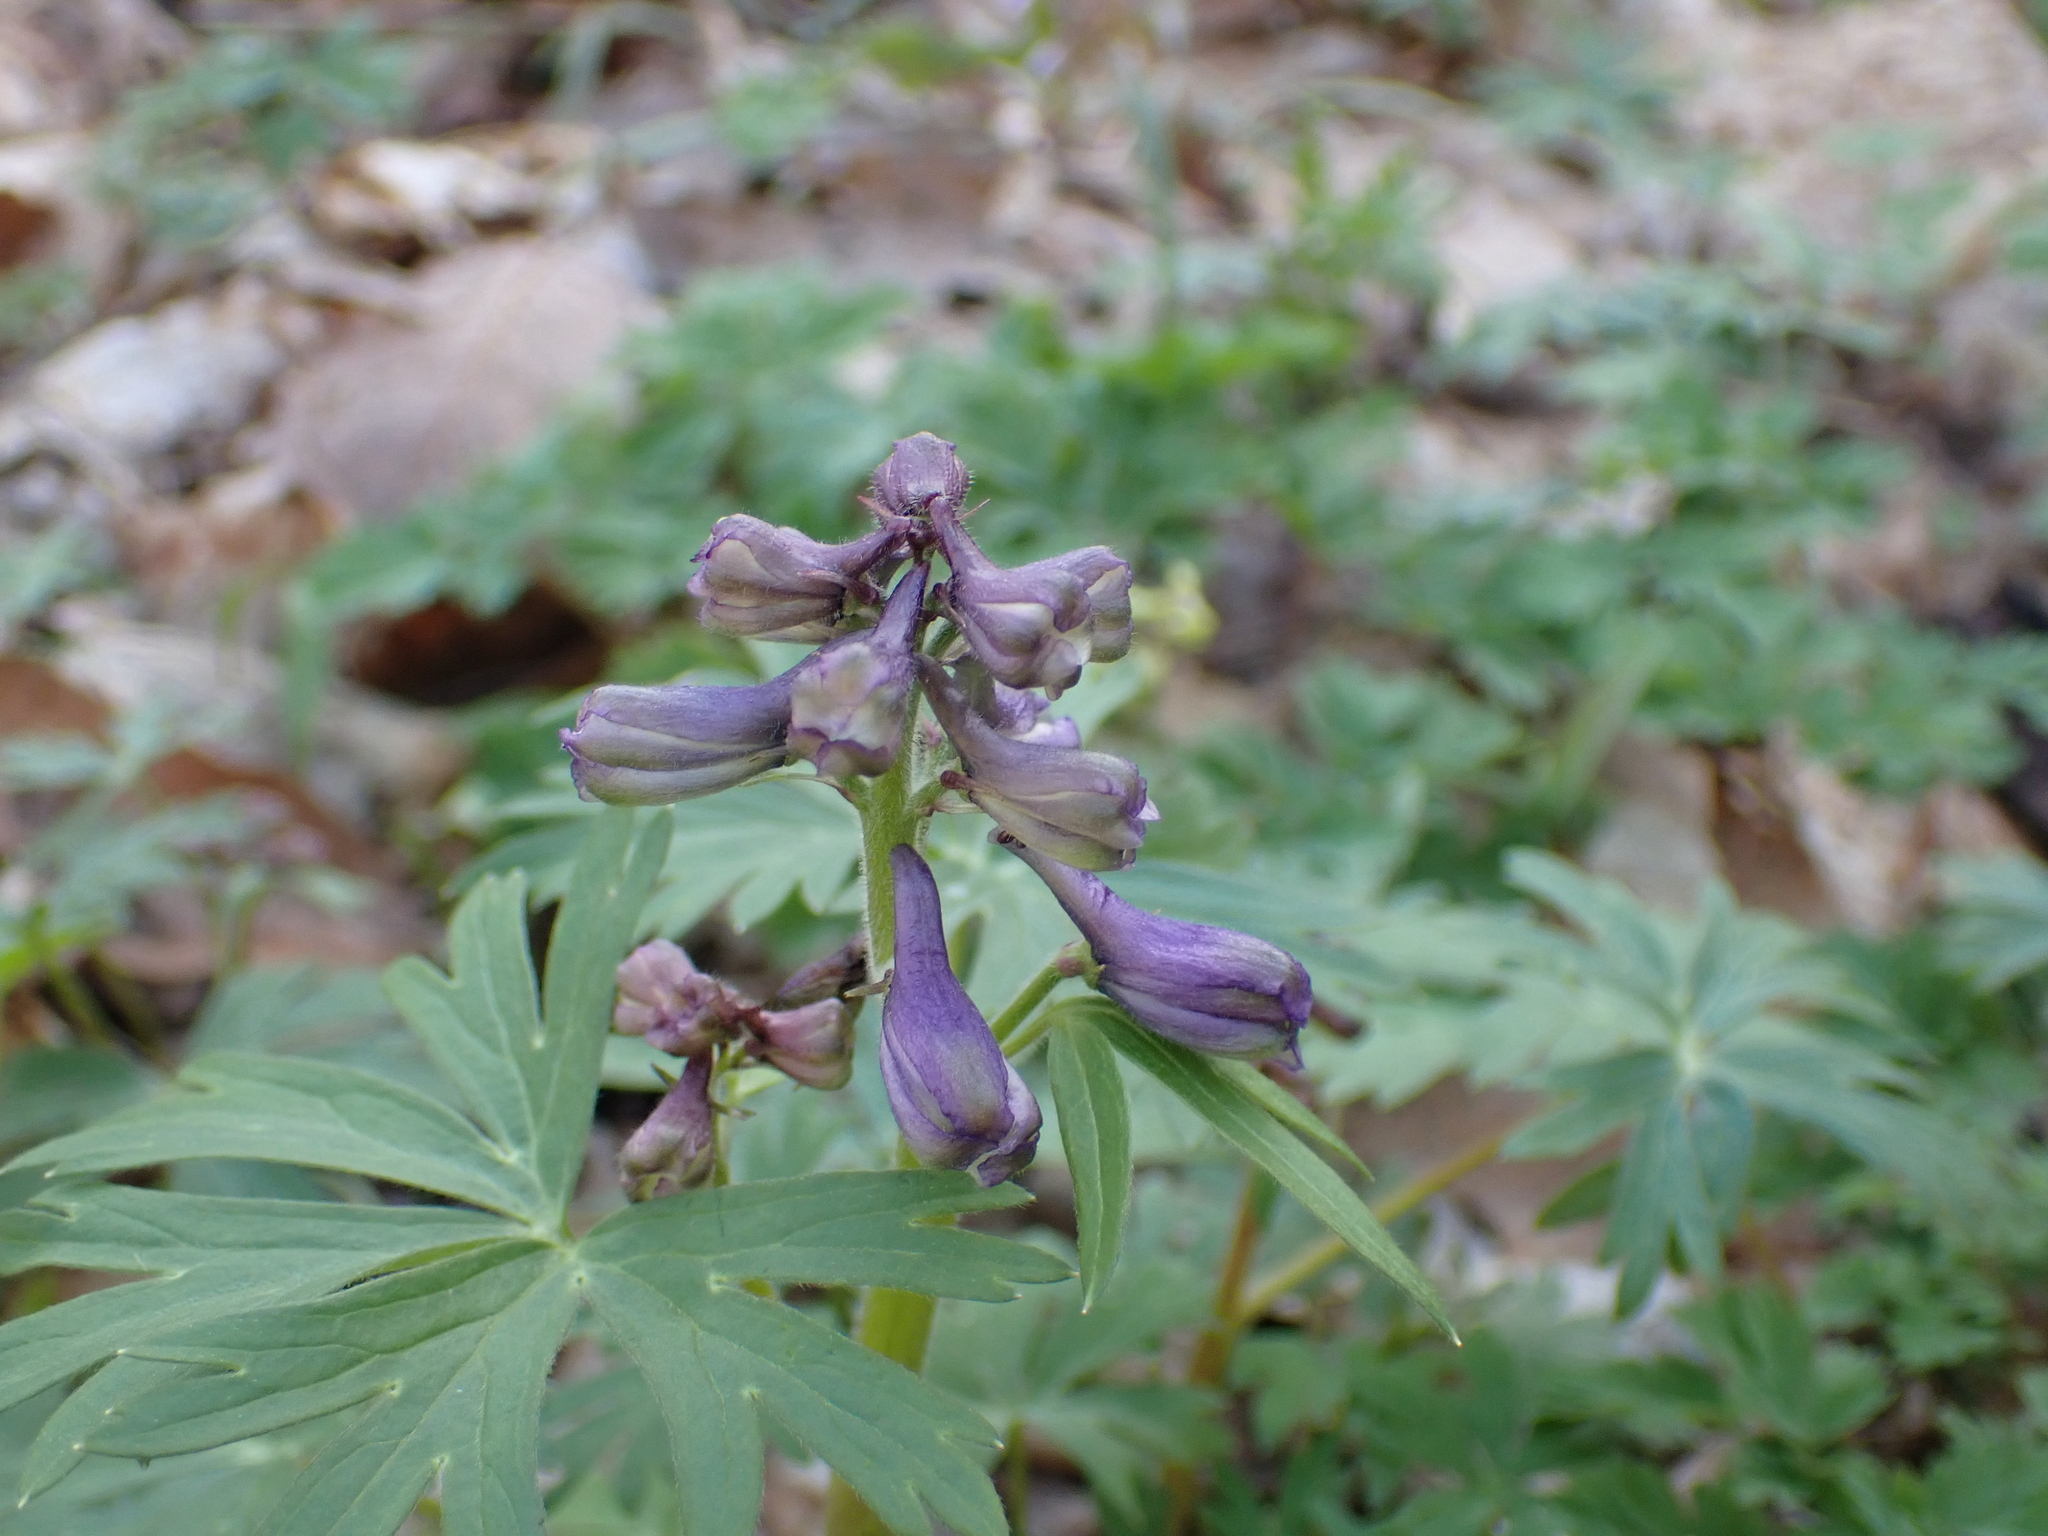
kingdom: Plantae
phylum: Tracheophyta
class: Magnoliopsida
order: Ranunculales
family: Ranunculaceae
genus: Delphinium
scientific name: Delphinium tricorne
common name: Dwarf larkspur
